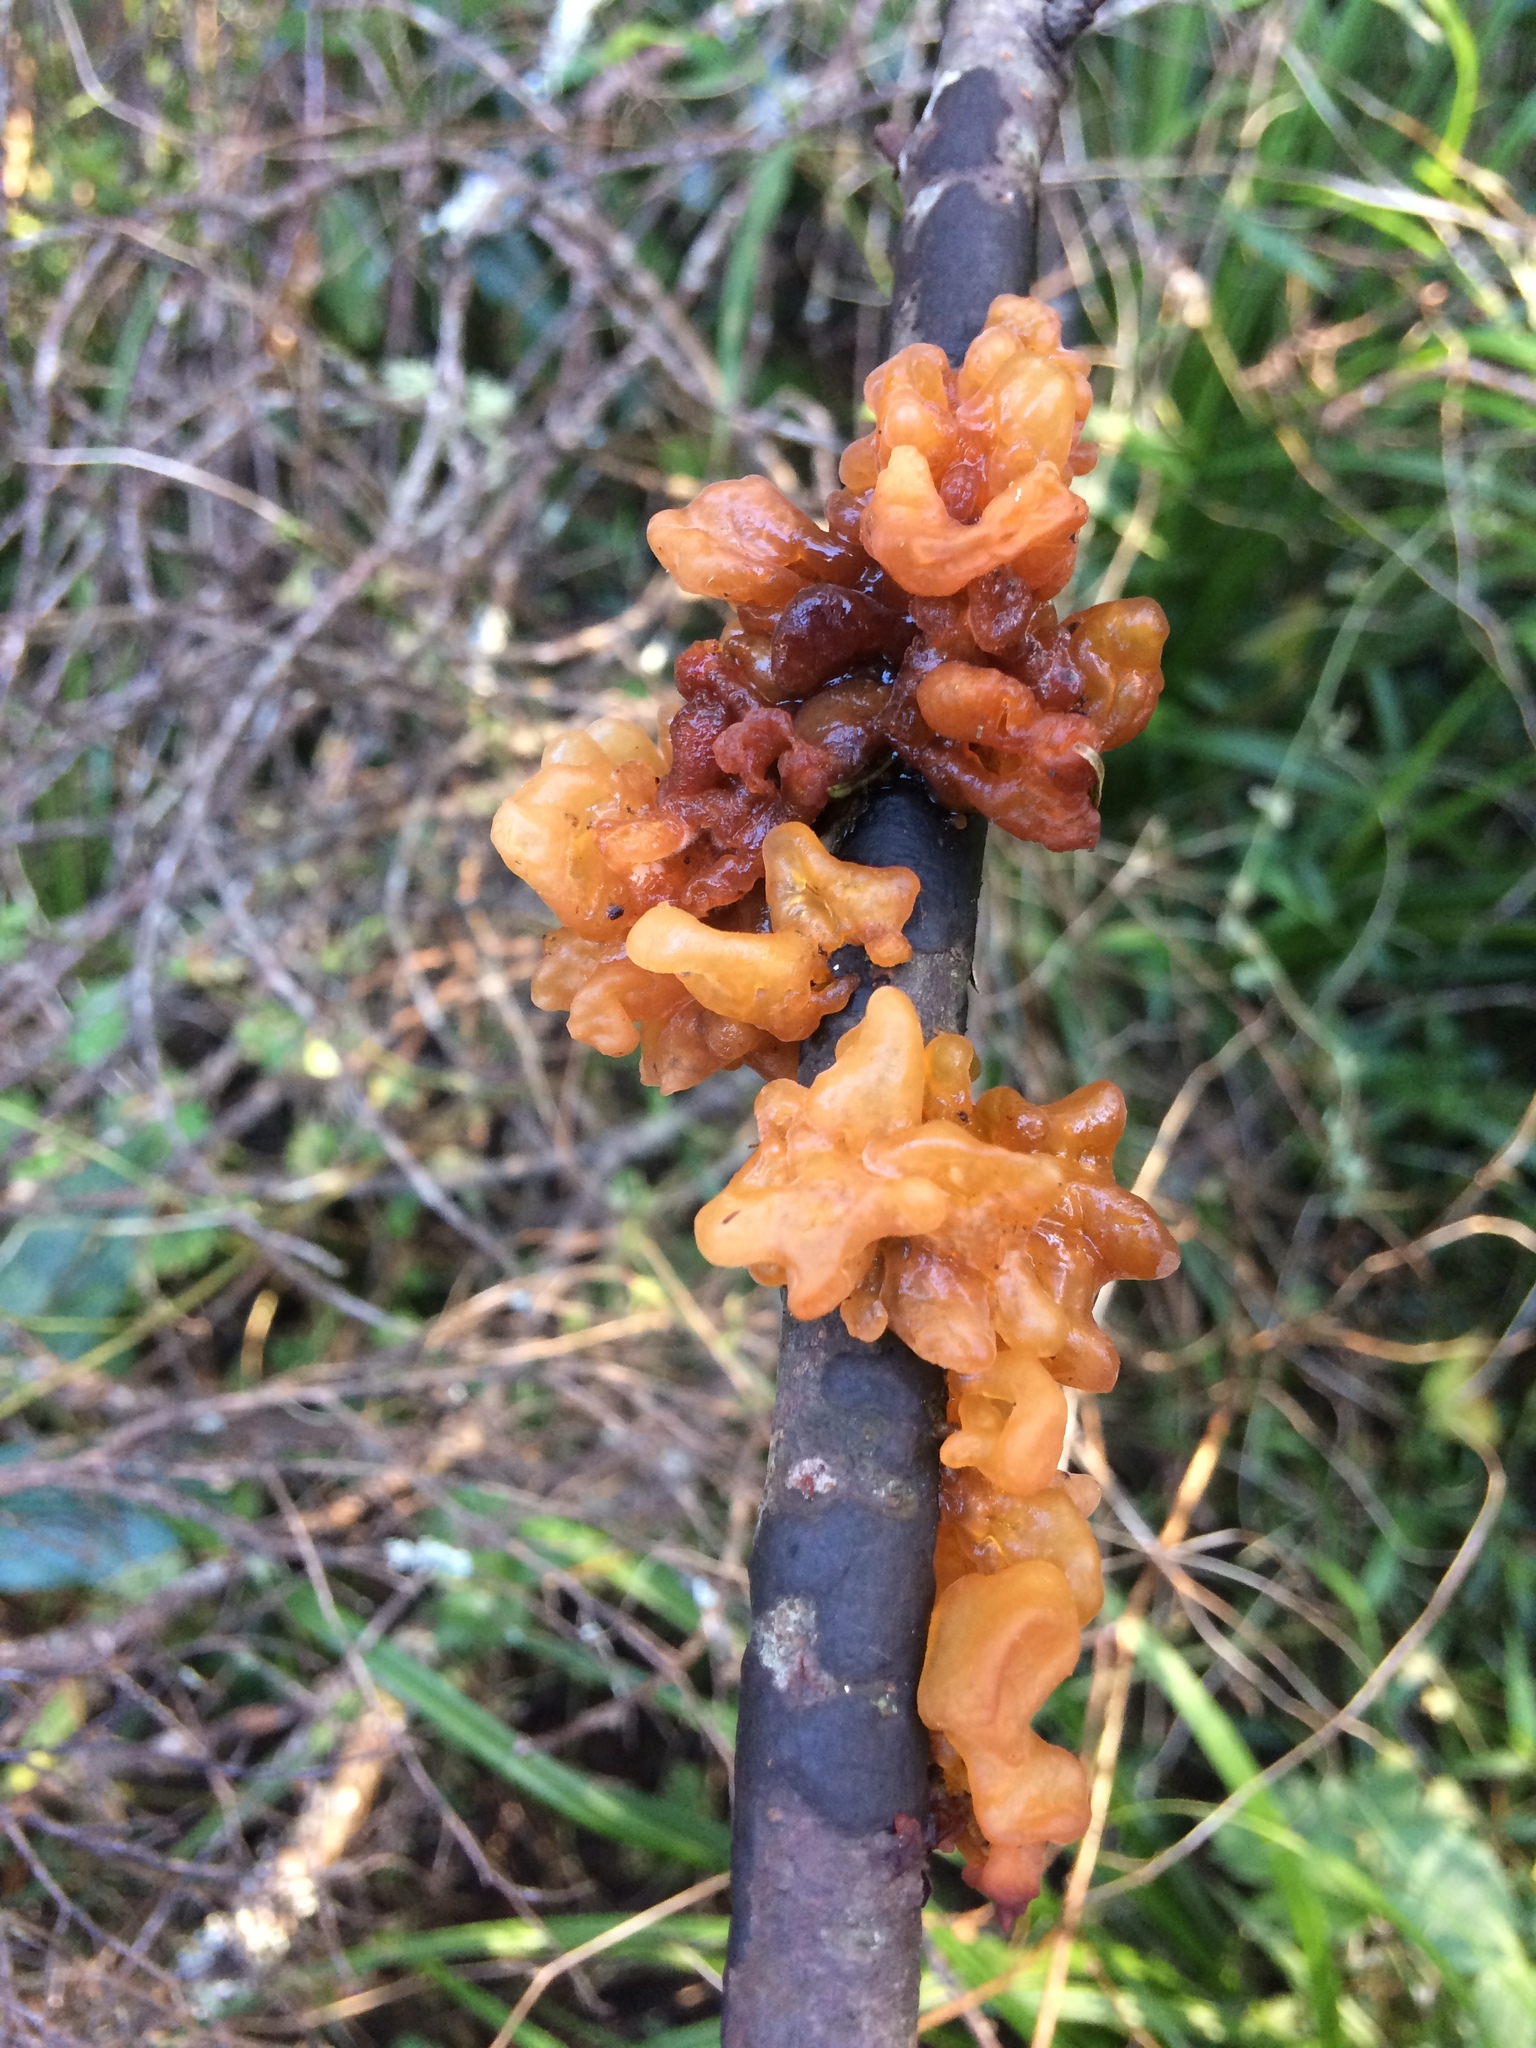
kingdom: Fungi
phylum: Basidiomycota
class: Tremellomycetes
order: Tremellales
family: Tremellaceae
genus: Tremella
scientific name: Tremella vesiculosa
